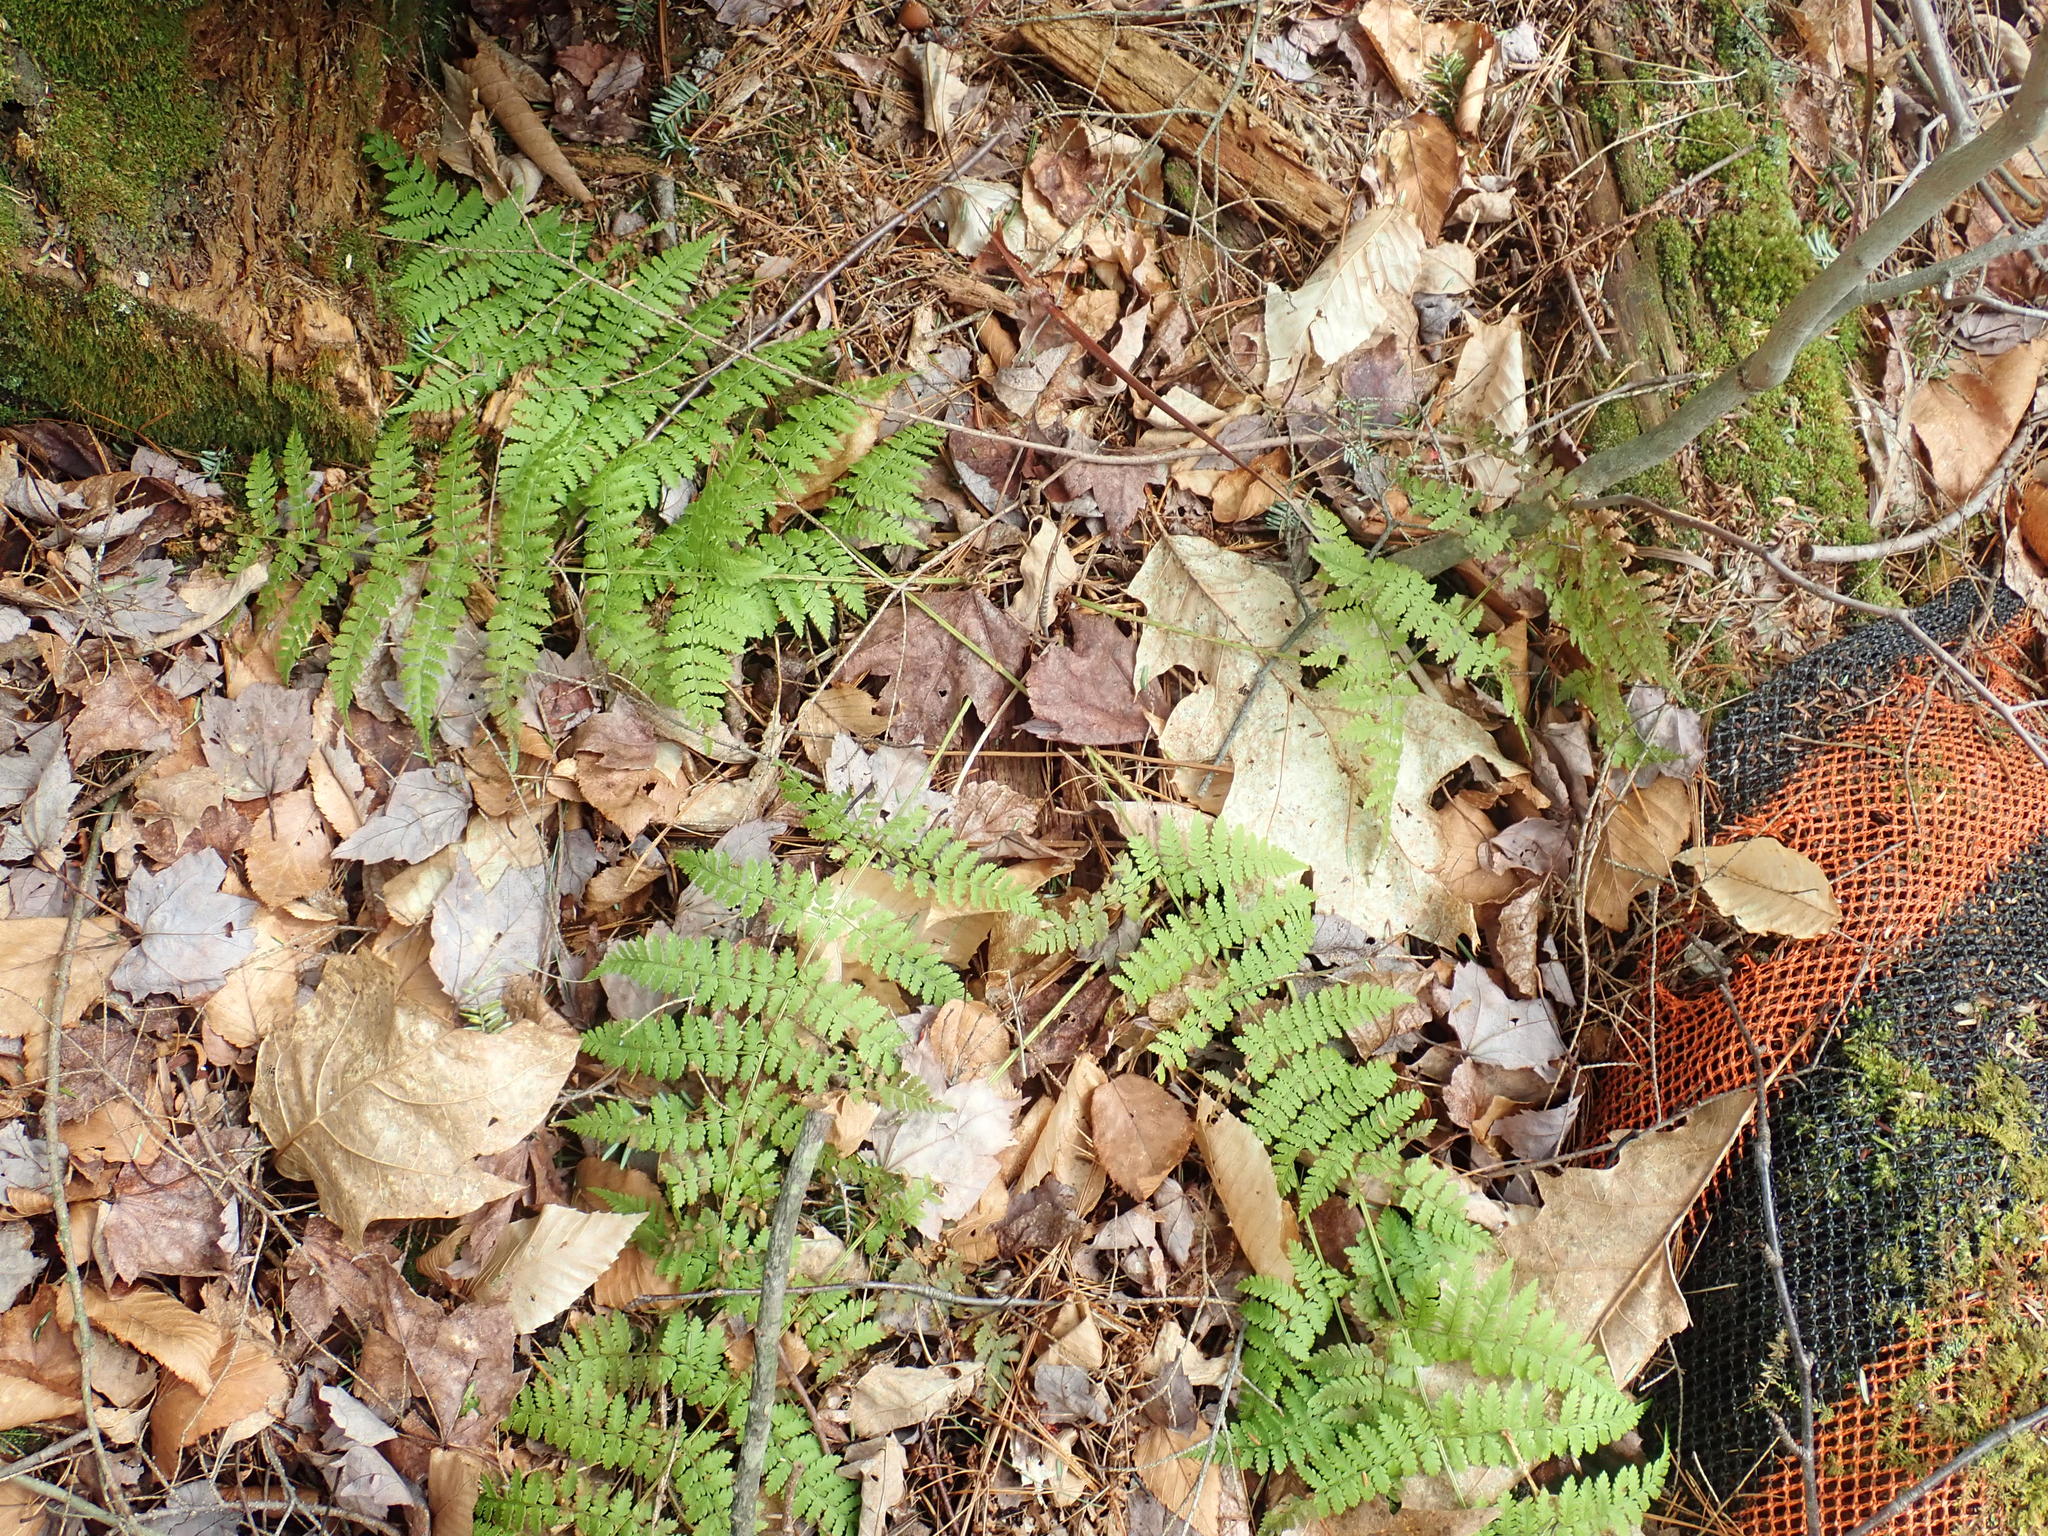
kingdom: Plantae
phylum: Tracheophyta
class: Polypodiopsida
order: Polypodiales
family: Dryopteridaceae
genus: Dryopteris
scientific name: Dryopteris intermedia
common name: Evergreen wood fern
